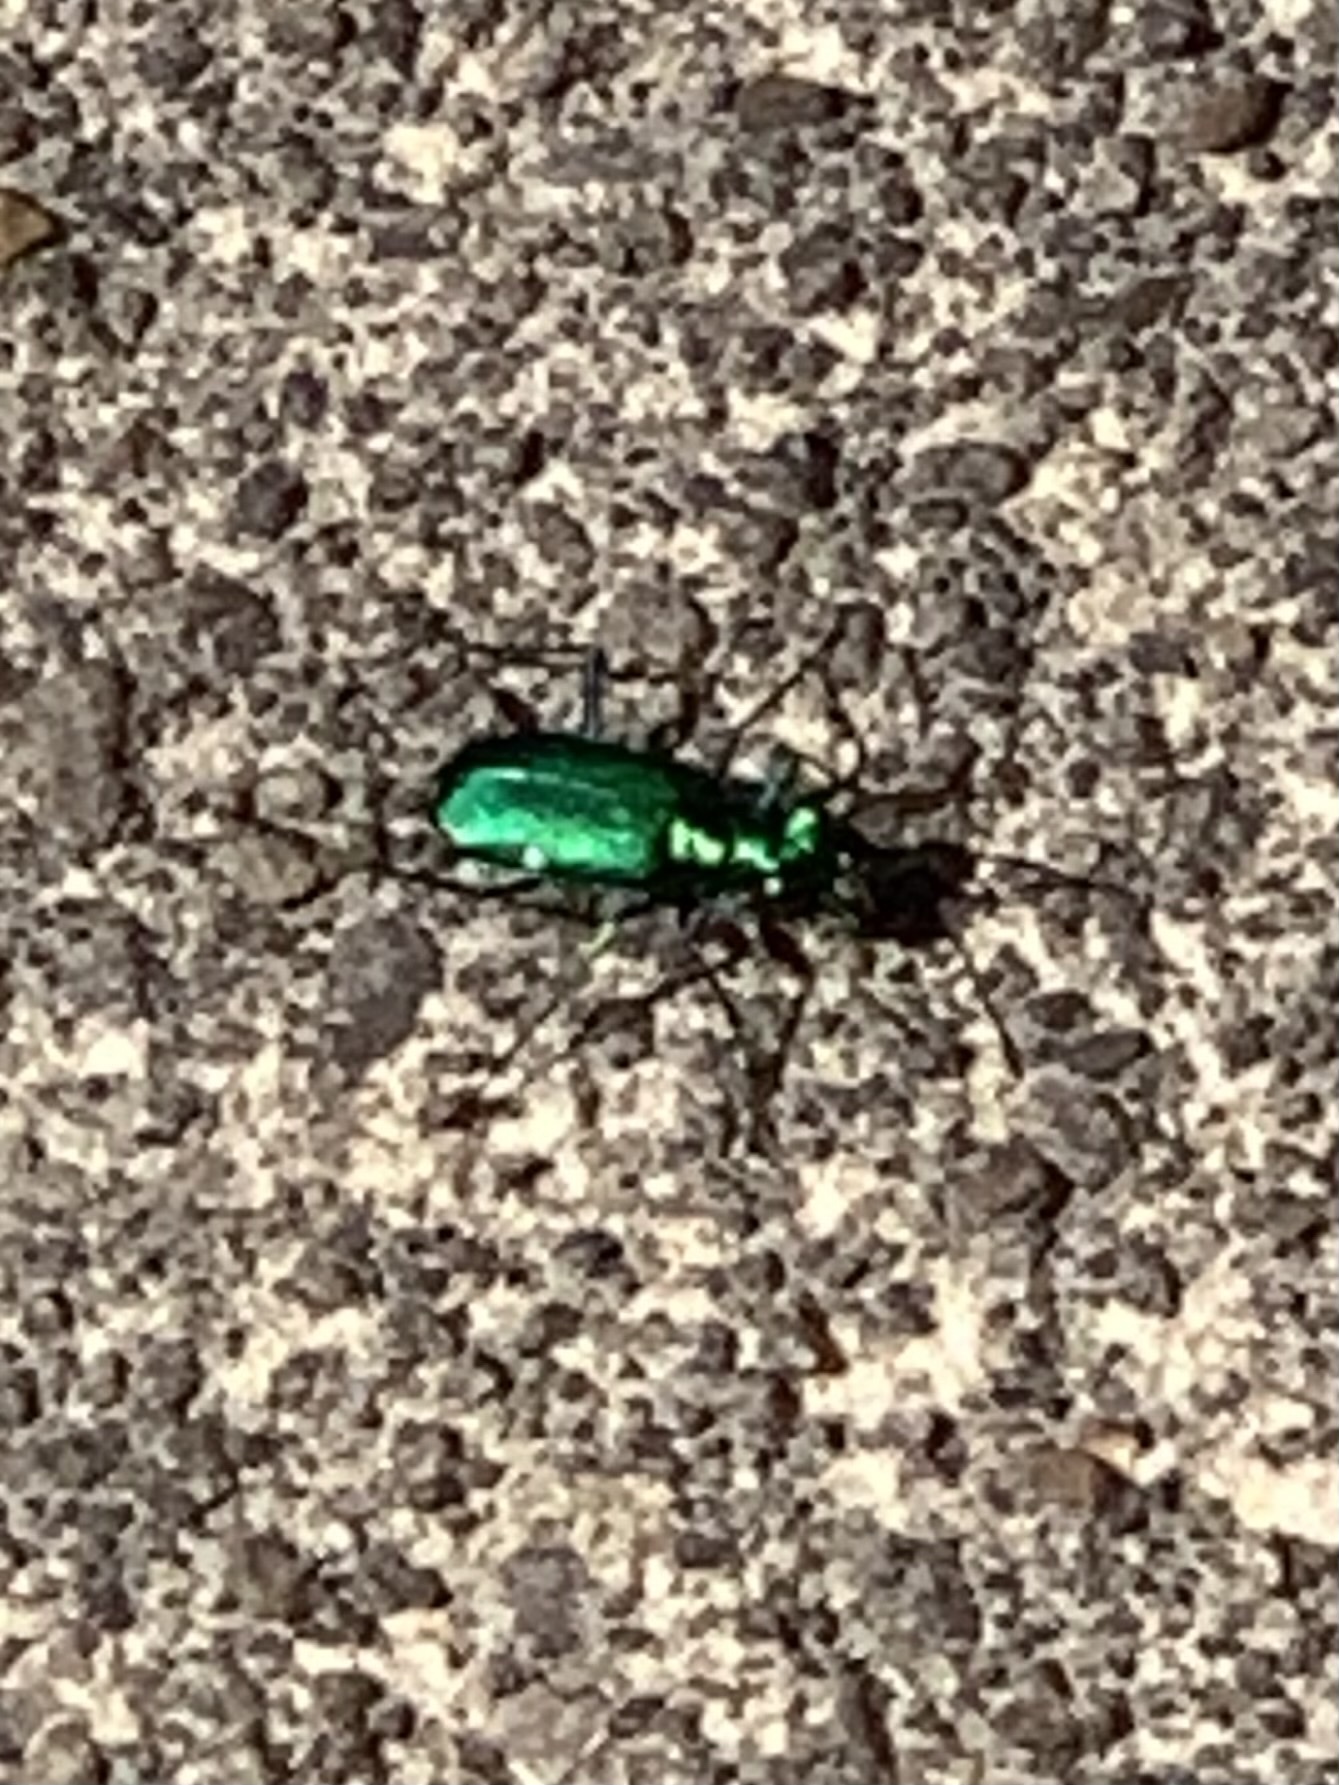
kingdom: Animalia
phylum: Arthropoda
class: Insecta
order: Coleoptera
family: Carabidae
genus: Cicindela
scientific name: Cicindela sexguttata
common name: Six-spotted tiger beetle
